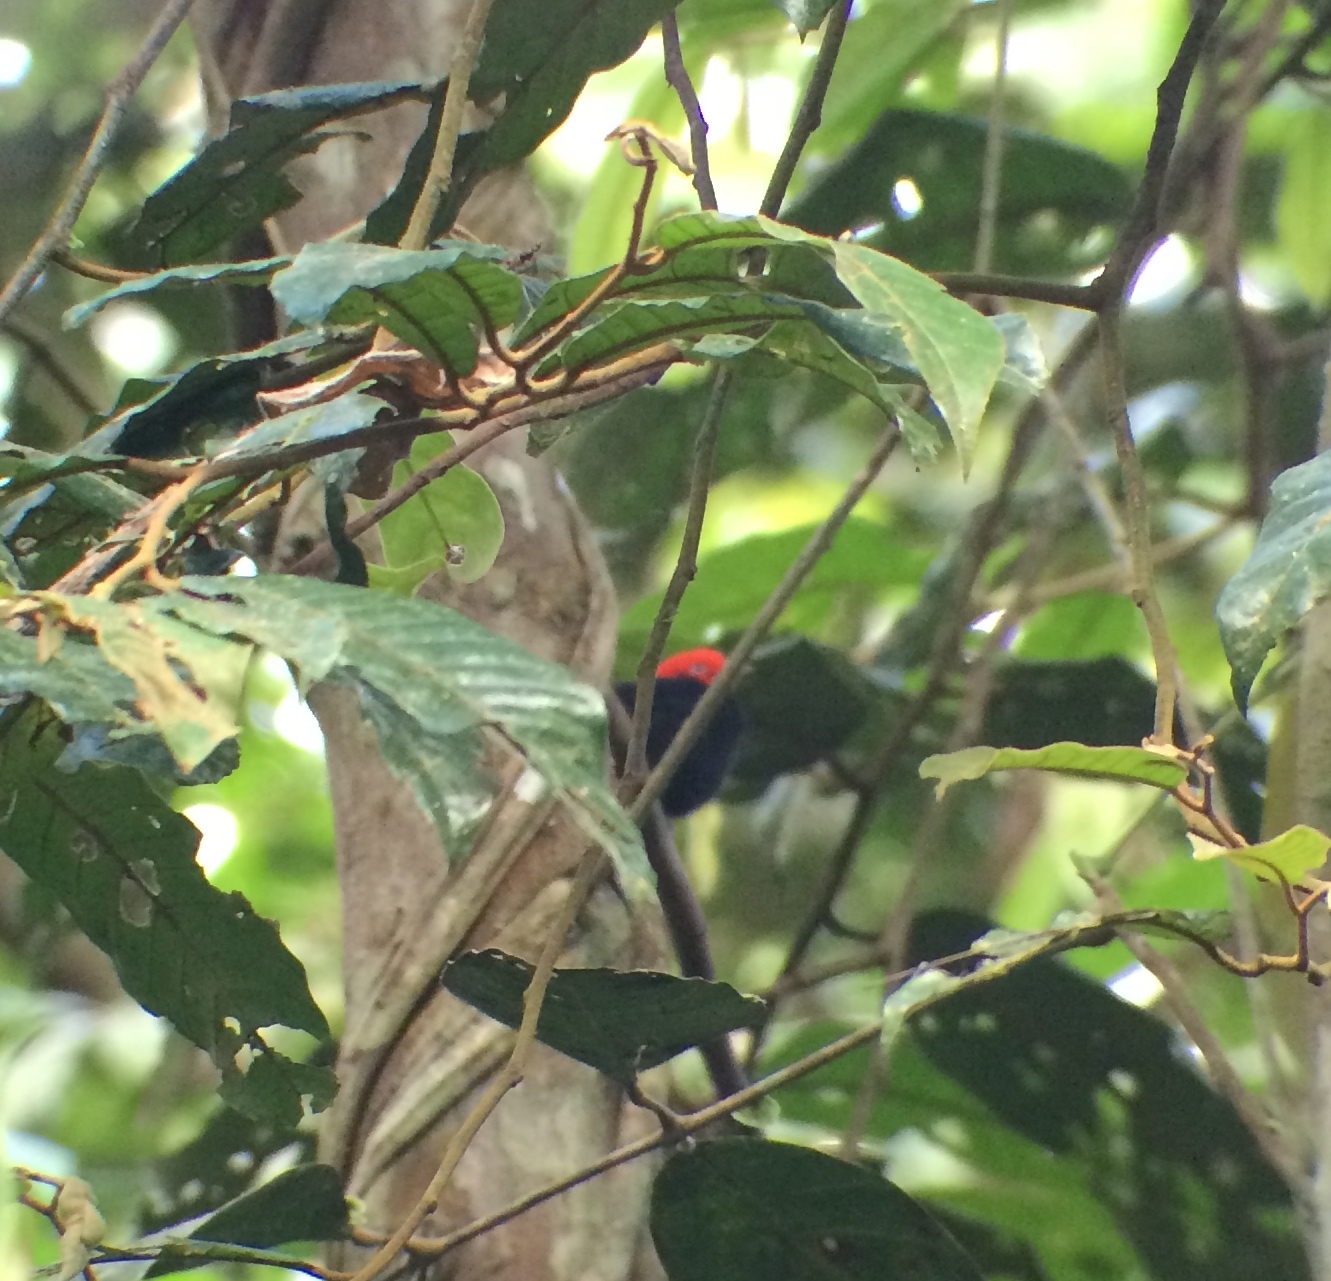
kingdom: Animalia
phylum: Chordata
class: Aves
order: Passeriformes
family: Pipridae
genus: Pipra
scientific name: Pipra mentalis
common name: Red-capped manakin
